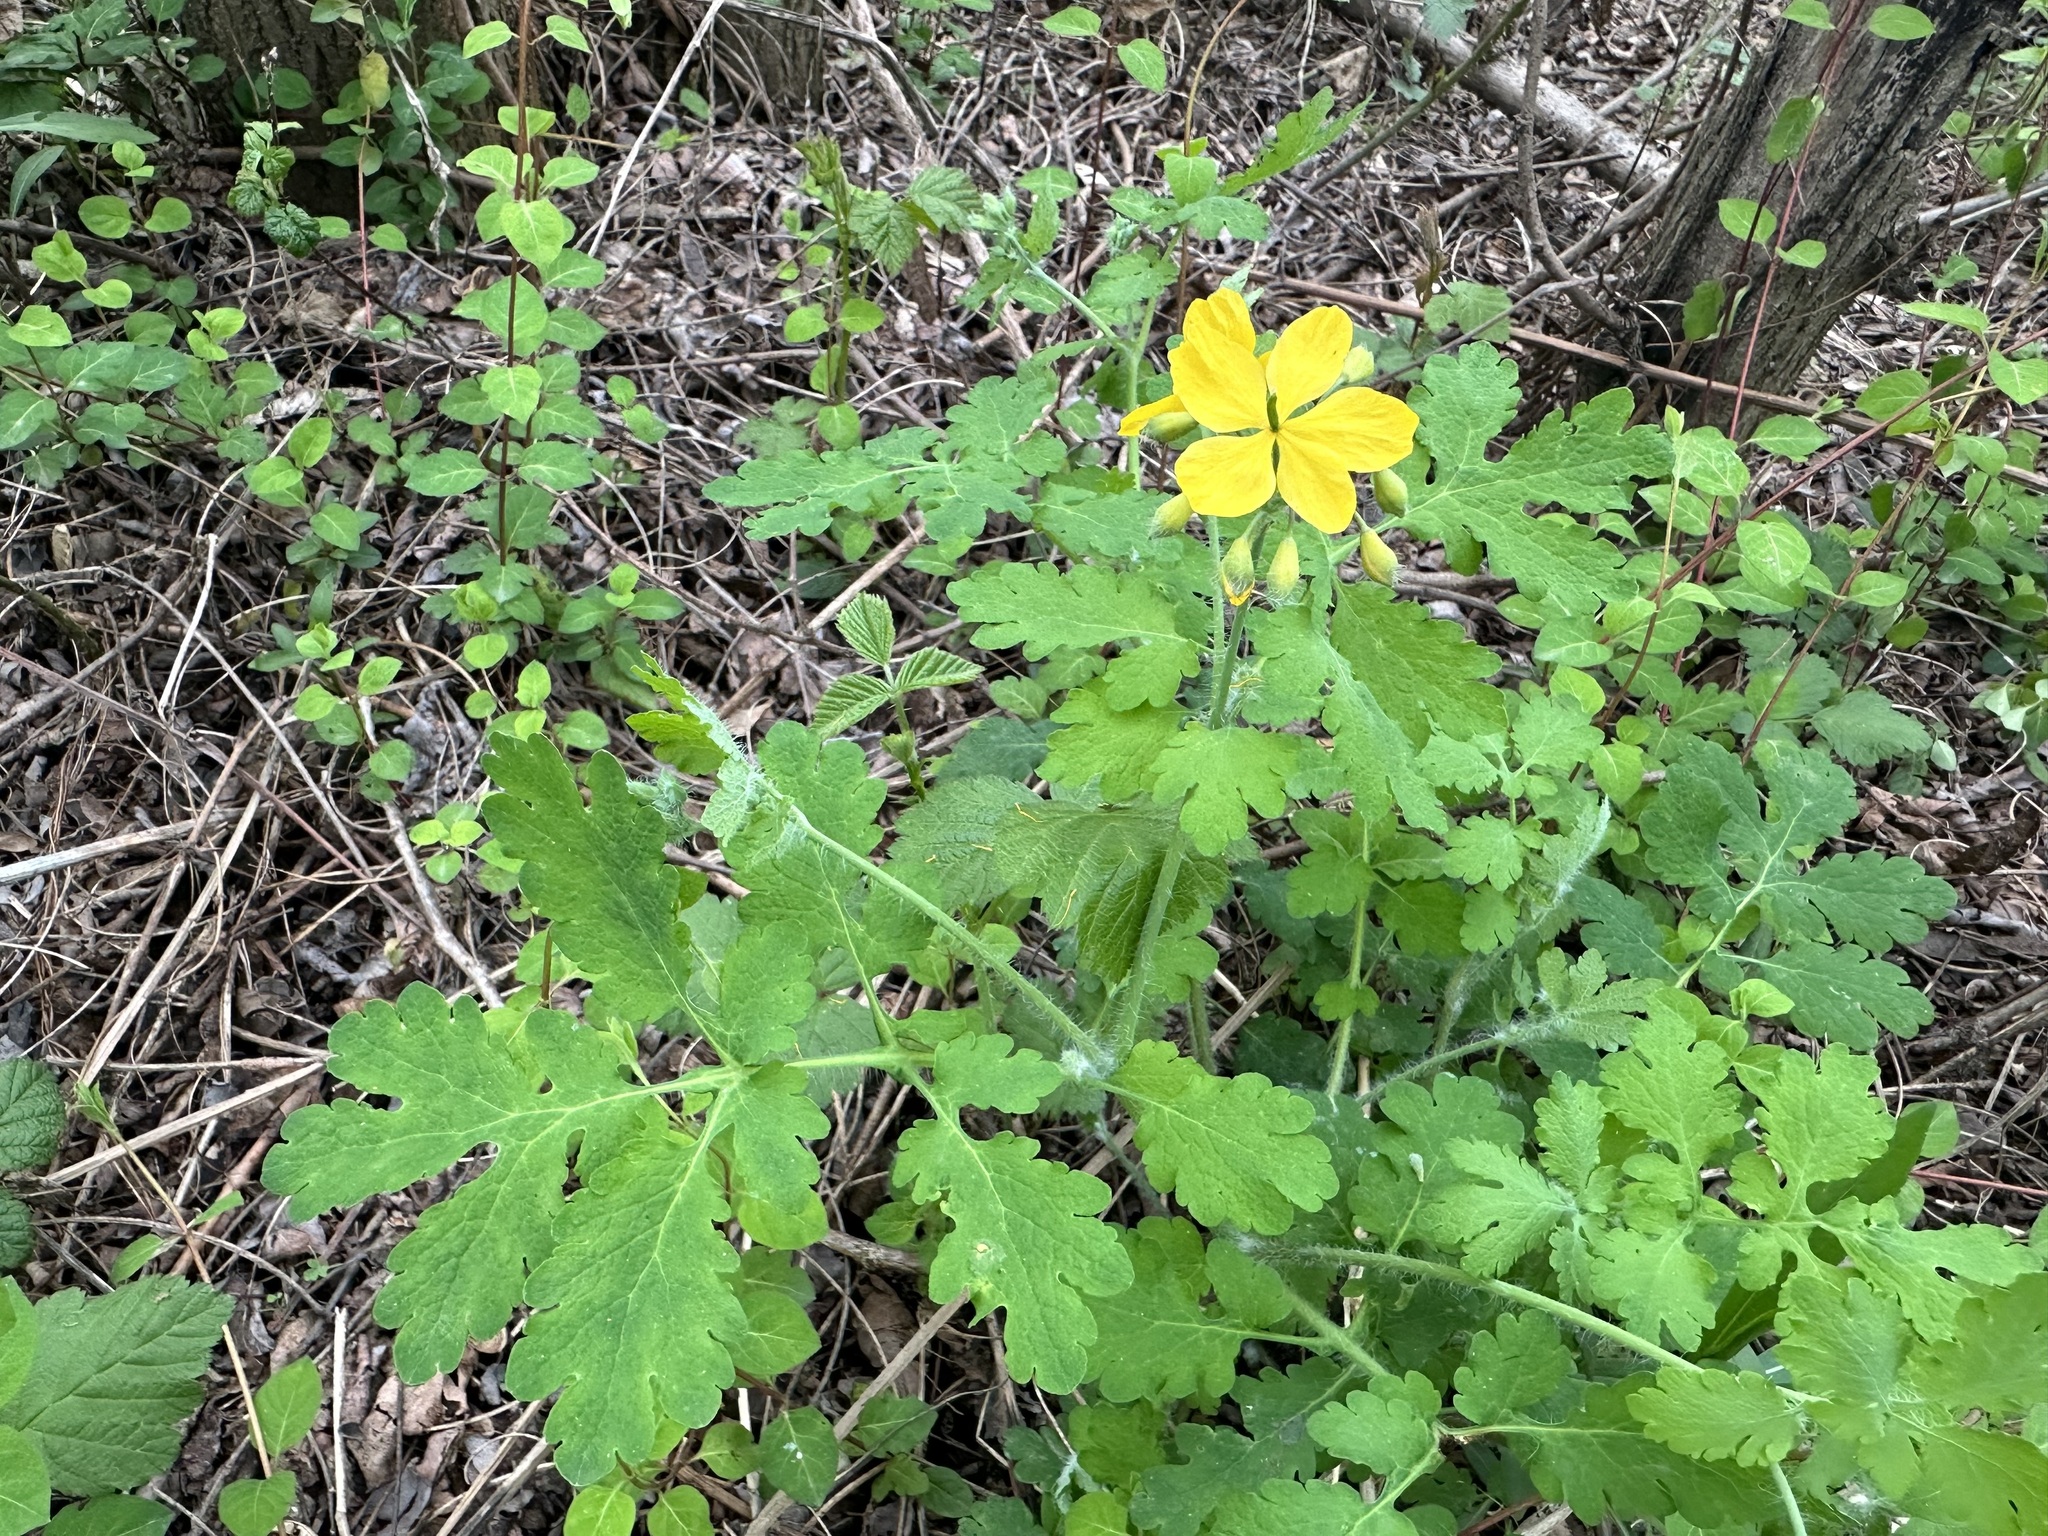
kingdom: Plantae
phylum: Tracheophyta
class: Magnoliopsida
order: Ranunculales
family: Papaveraceae
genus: Chelidonium
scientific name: Chelidonium majus
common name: Greater celandine
